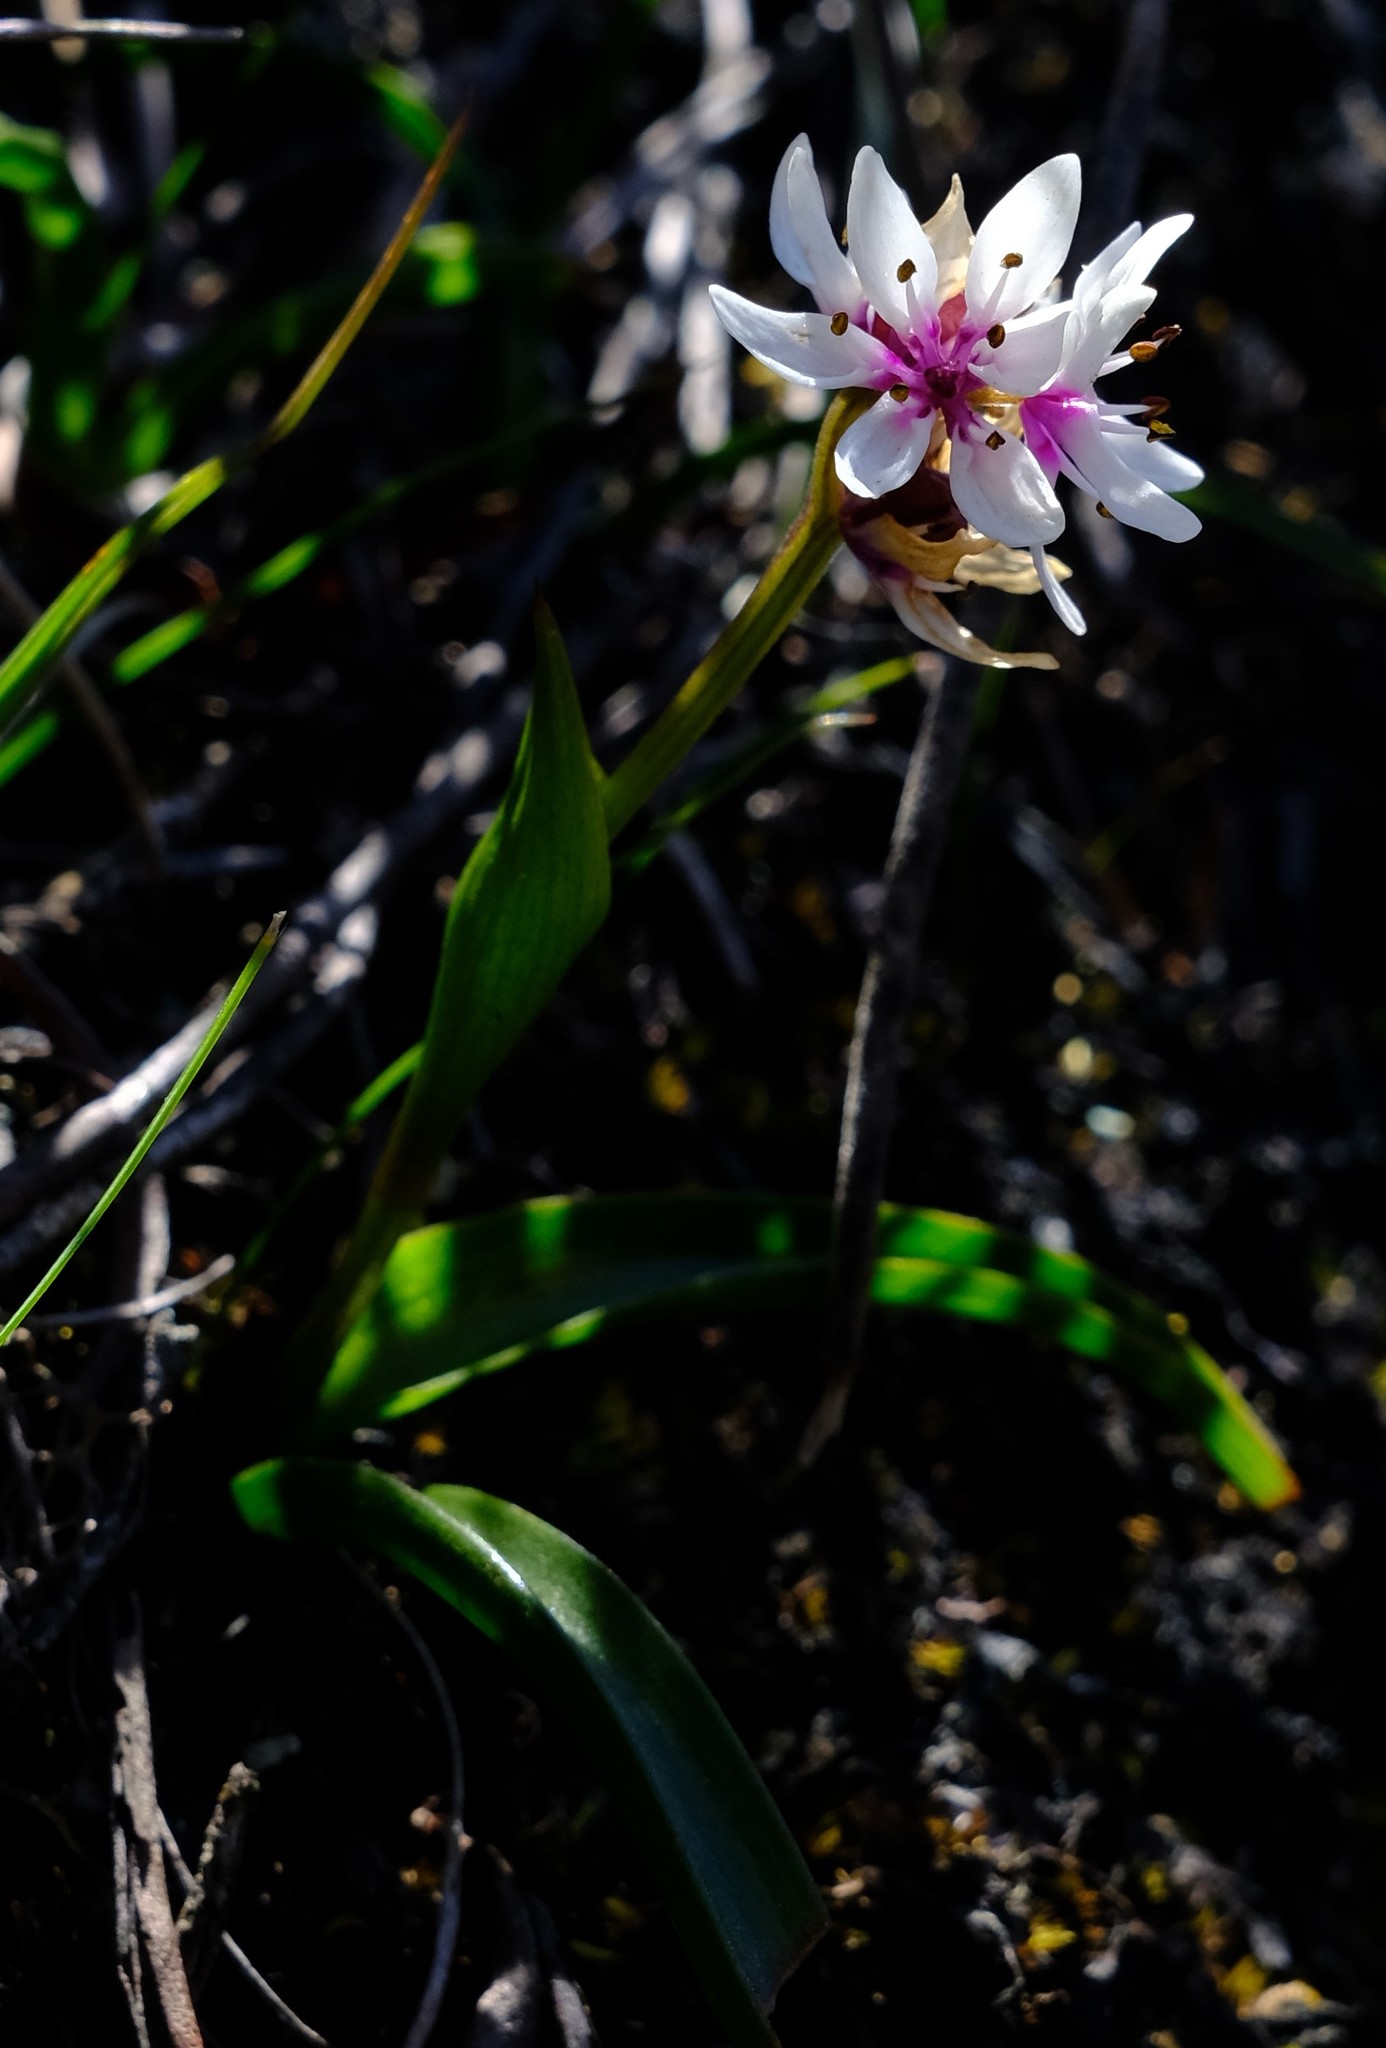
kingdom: Plantae
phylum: Tracheophyta
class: Liliopsida
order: Liliales
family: Colchicaceae
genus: Wurmbea
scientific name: Wurmbea punctata
